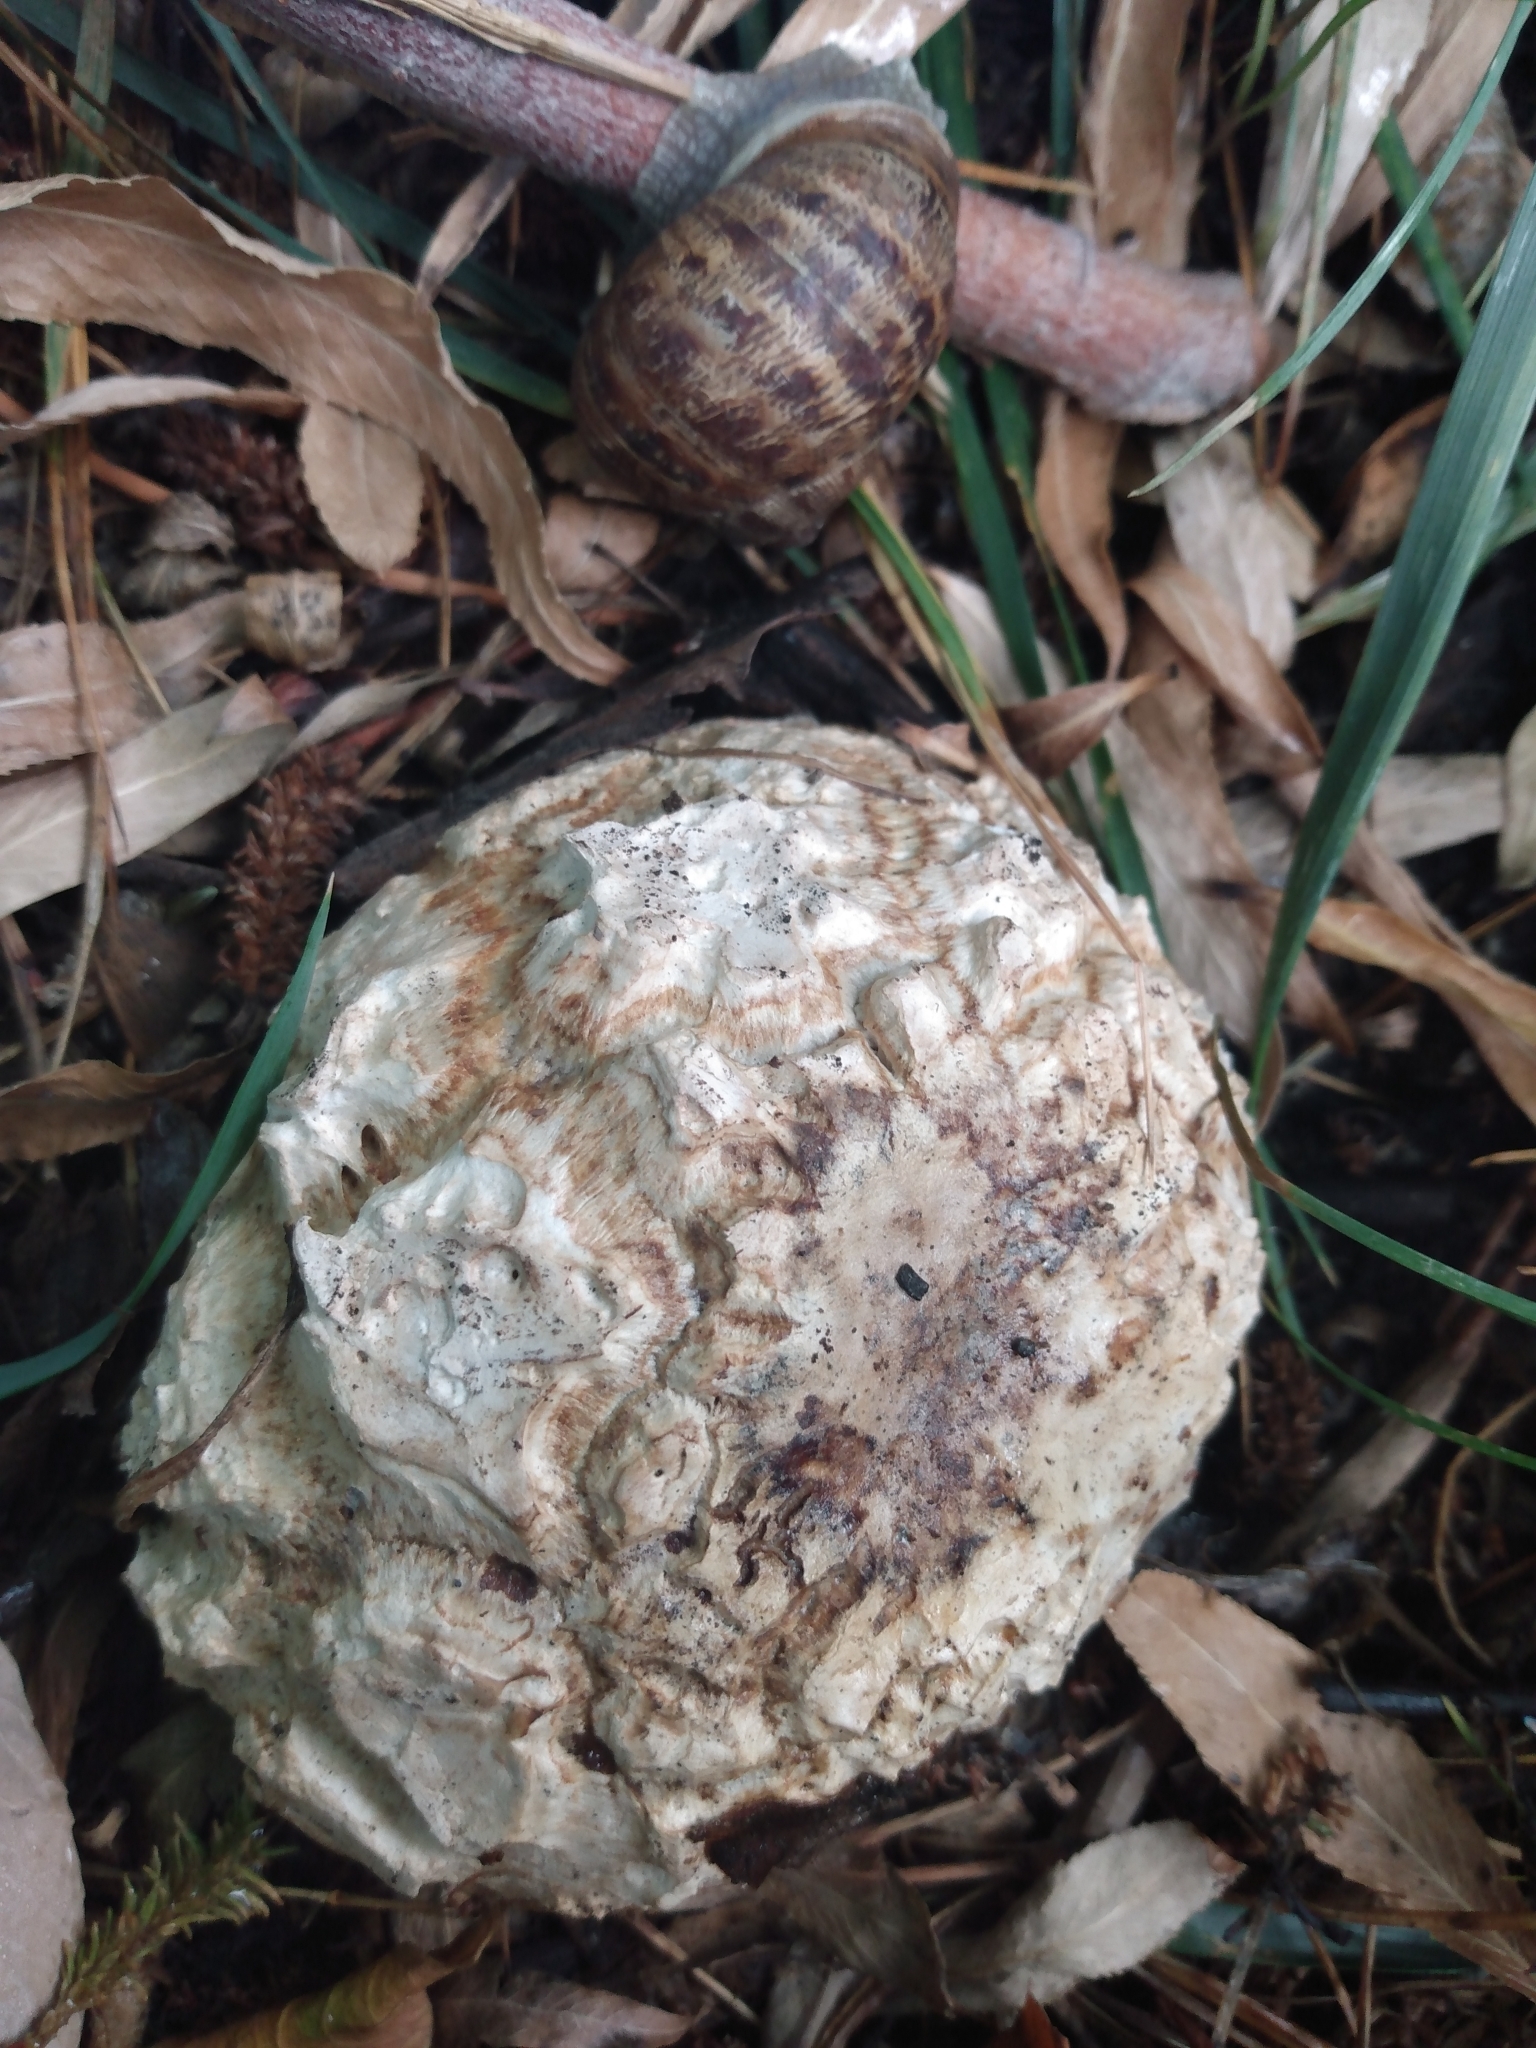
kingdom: Fungi
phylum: Basidiomycota
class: Agaricomycetes
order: Agaricales
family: Agaricaceae
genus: Mycenastrum
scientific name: Mycenastrum corium
